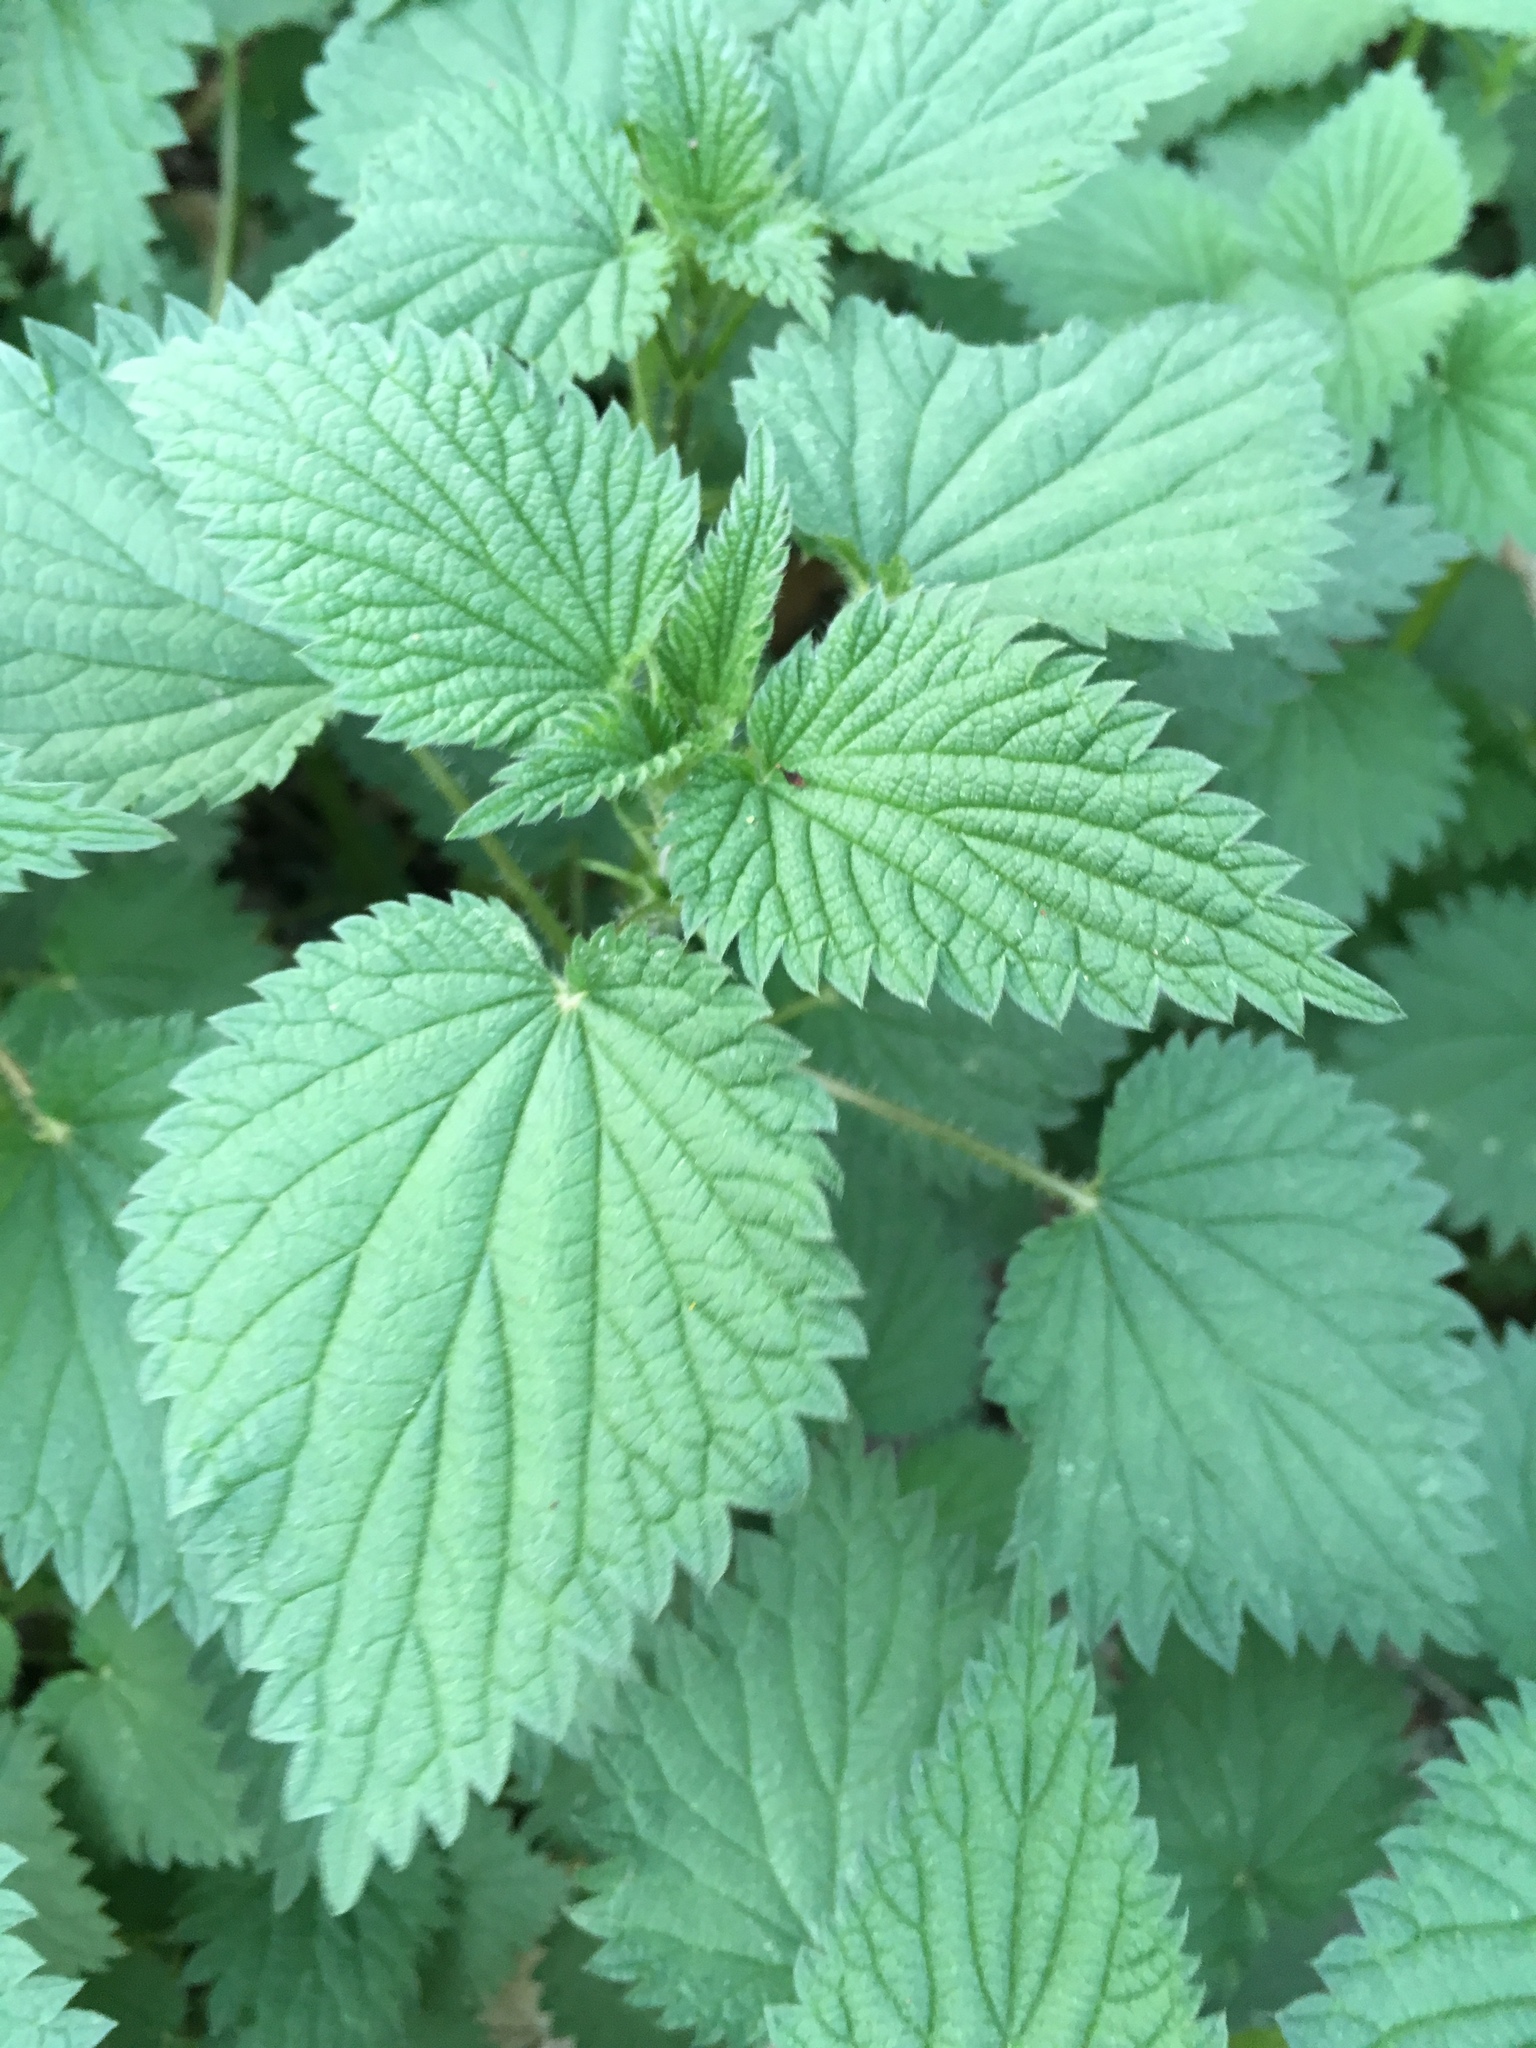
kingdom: Plantae
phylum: Tracheophyta
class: Magnoliopsida
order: Rosales
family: Urticaceae
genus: Urtica
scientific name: Urtica dioica
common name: Common nettle
